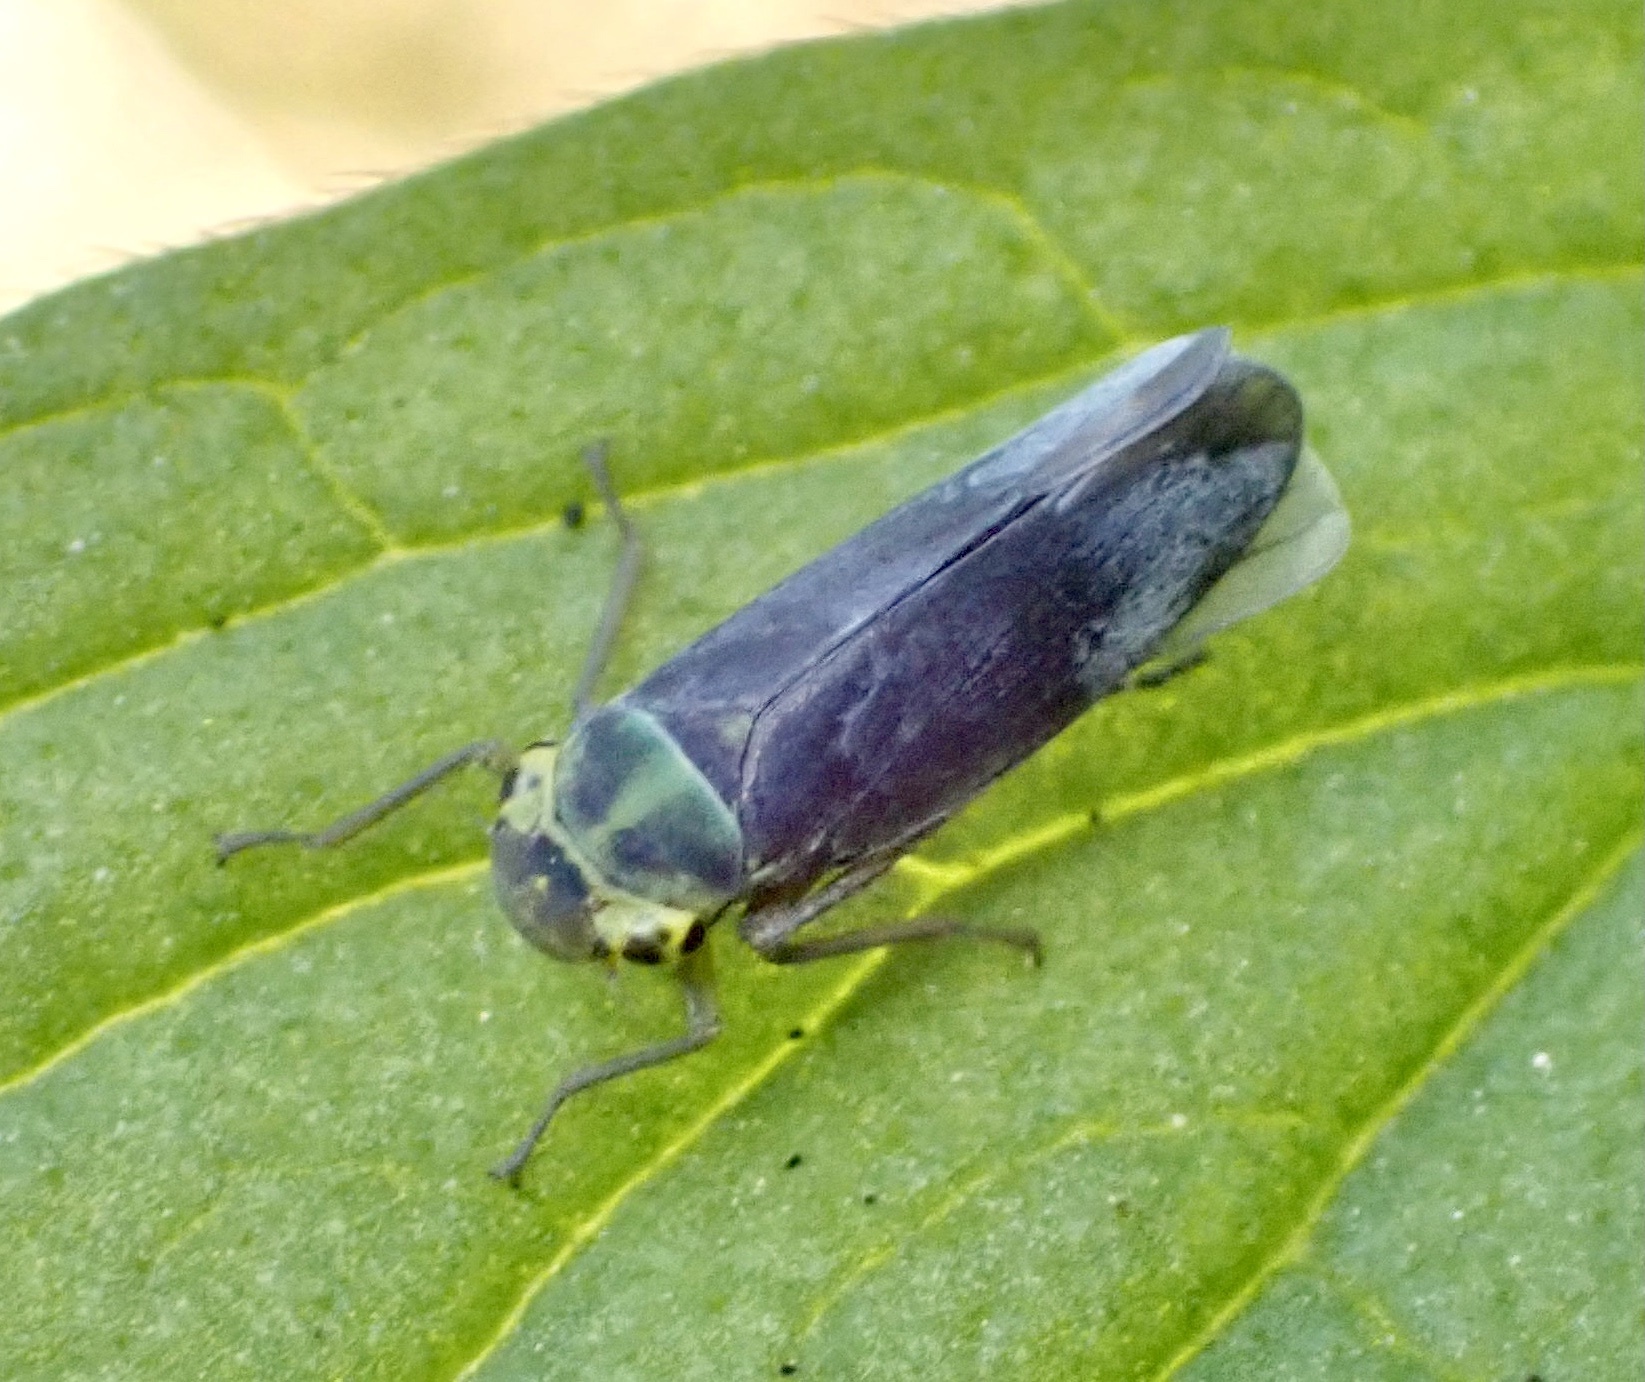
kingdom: Animalia
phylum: Arthropoda
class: Insecta
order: Hemiptera
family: Cicadellidae
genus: Cicadella
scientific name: Cicadella viridis
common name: Leafhopper
